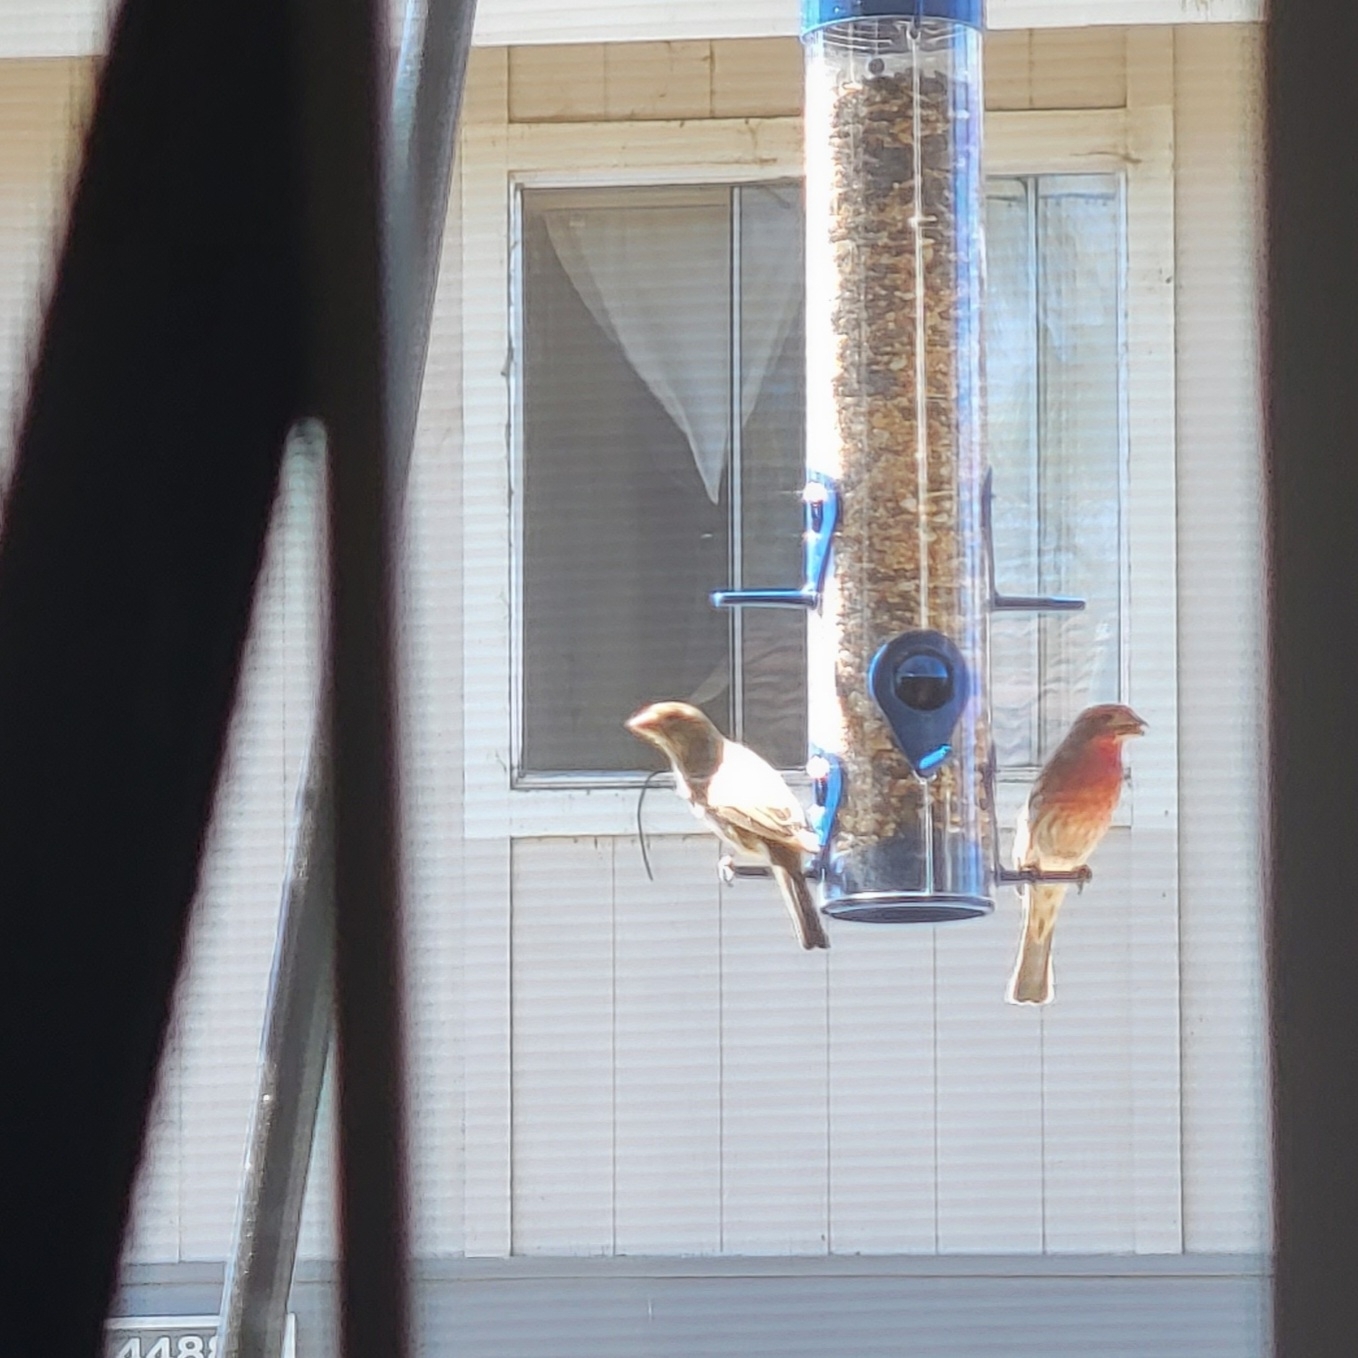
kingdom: Animalia
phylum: Chordata
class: Aves
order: Passeriformes
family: Fringillidae
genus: Haemorhous
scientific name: Haemorhous mexicanus
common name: House finch
